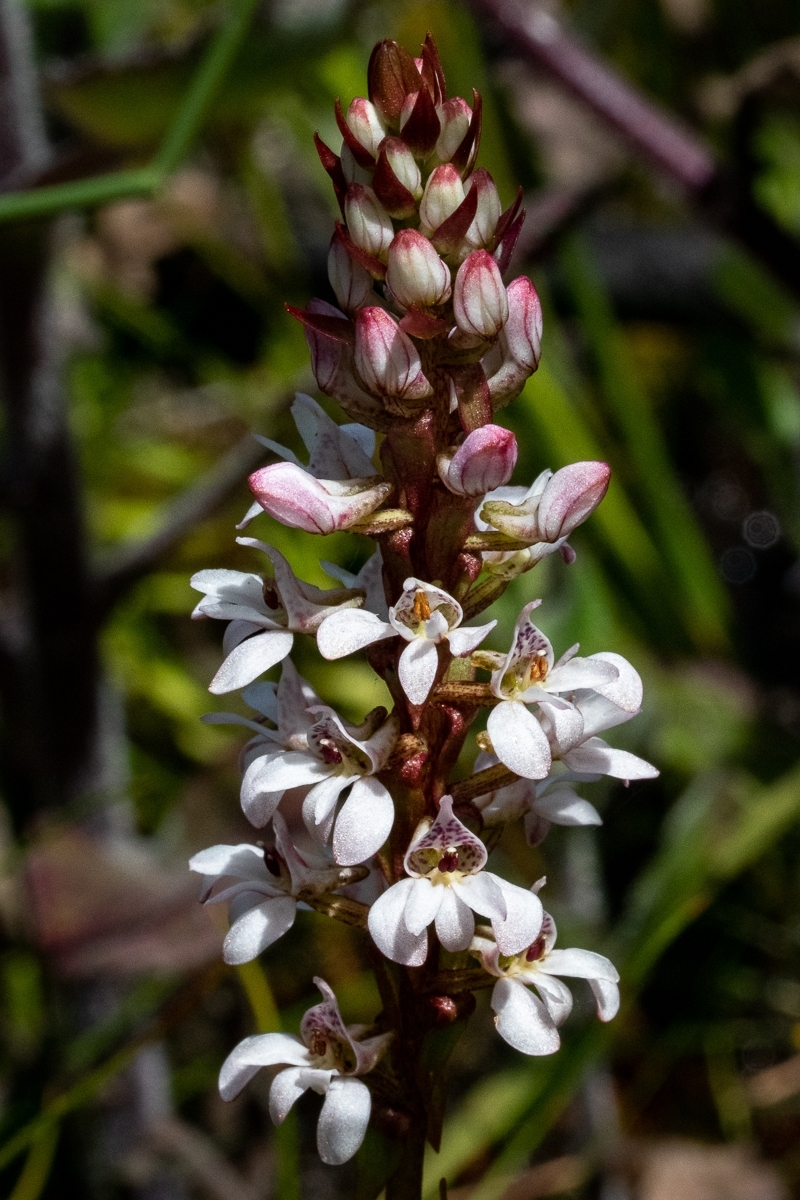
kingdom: Plantae
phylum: Tracheophyta
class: Liliopsida
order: Asparagales
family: Orchidaceae
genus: Satyrium
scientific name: Satyrium rhynchanthum
